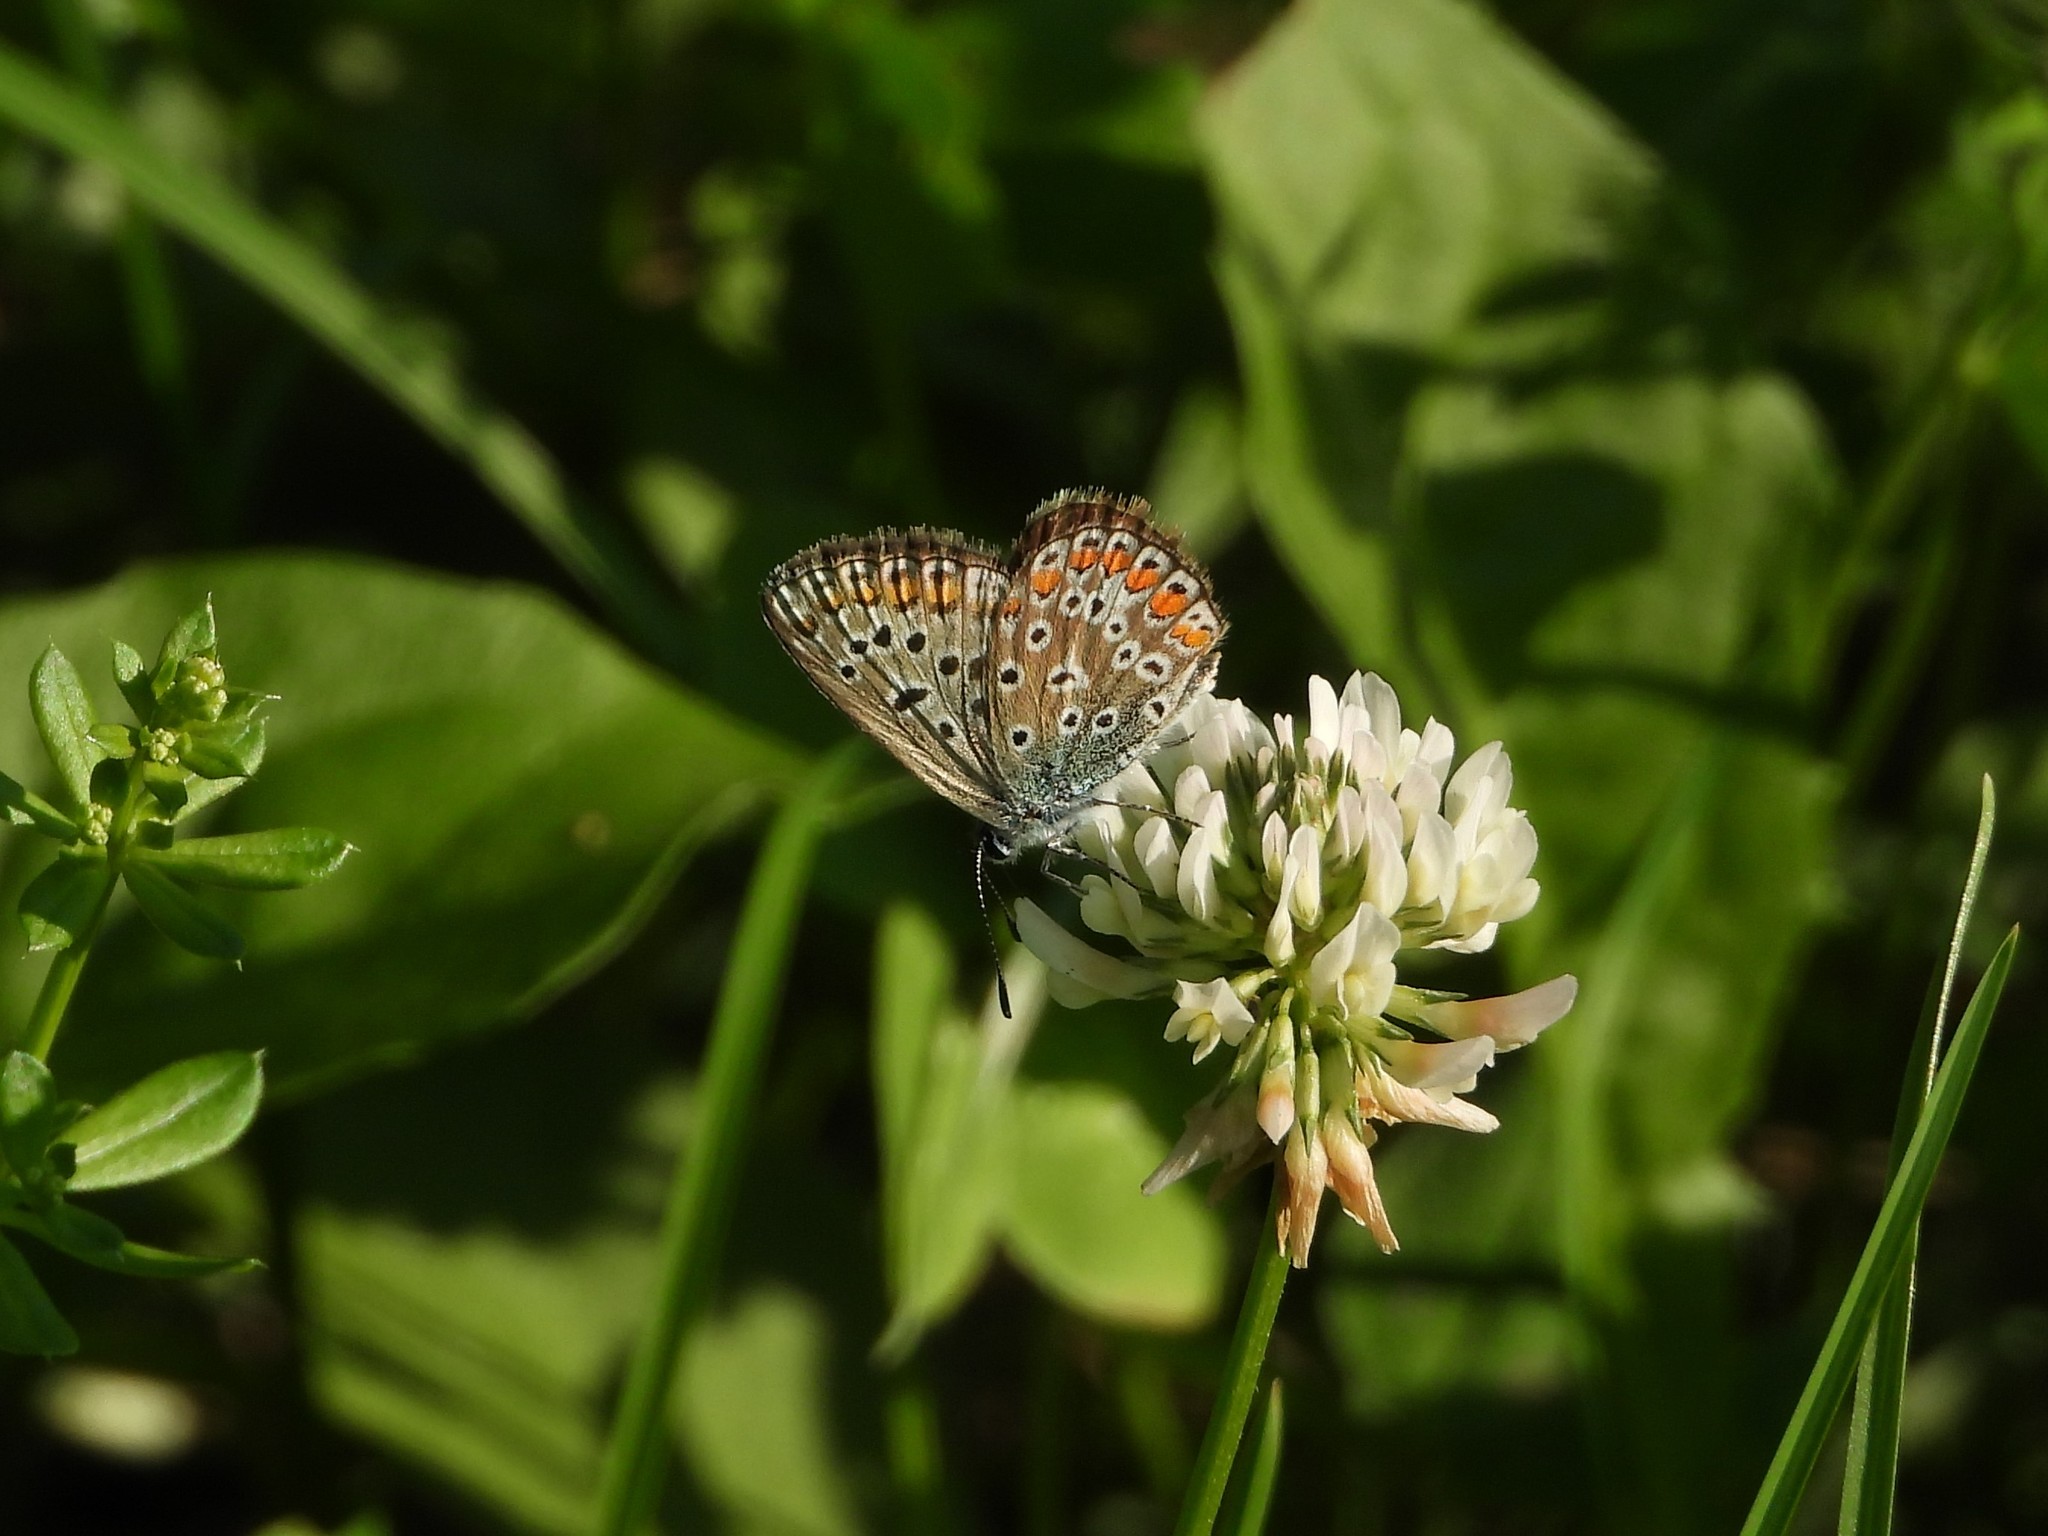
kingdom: Animalia
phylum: Arthropoda
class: Insecta
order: Lepidoptera
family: Lycaenidae
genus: Polyommatus
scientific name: Polyommatus icarus
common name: Common blue
